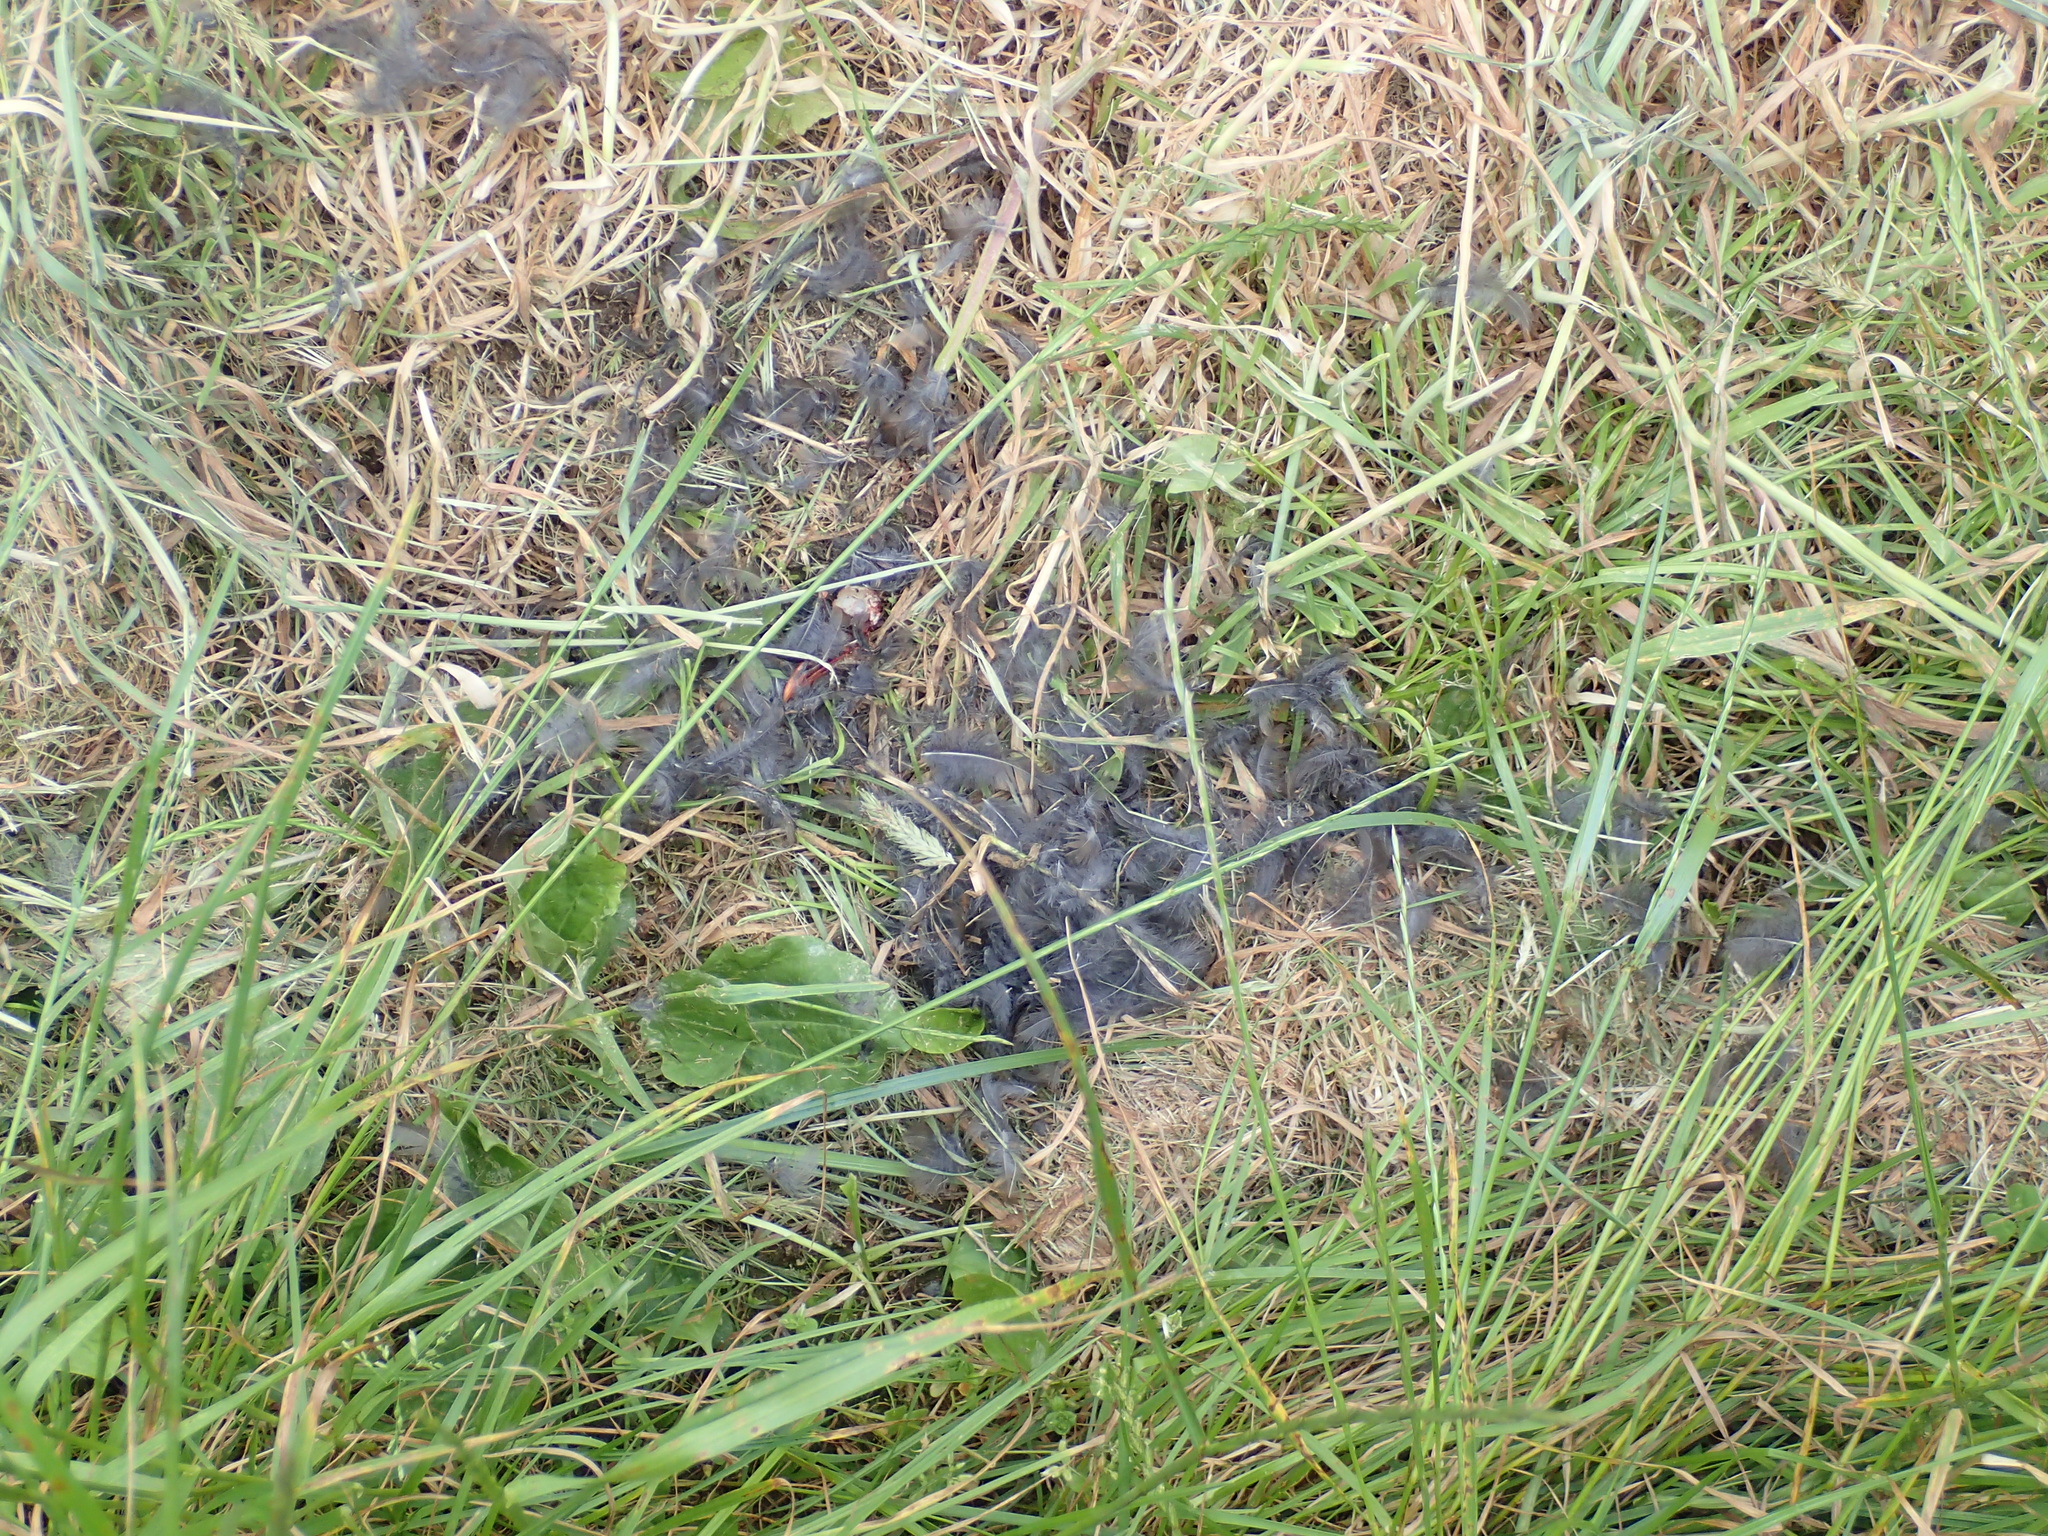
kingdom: Animalia
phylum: Chordata
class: Aves
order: Passeriformes
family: Turdidae
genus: Turdus
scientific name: Turdus merula
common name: Common blackbird
